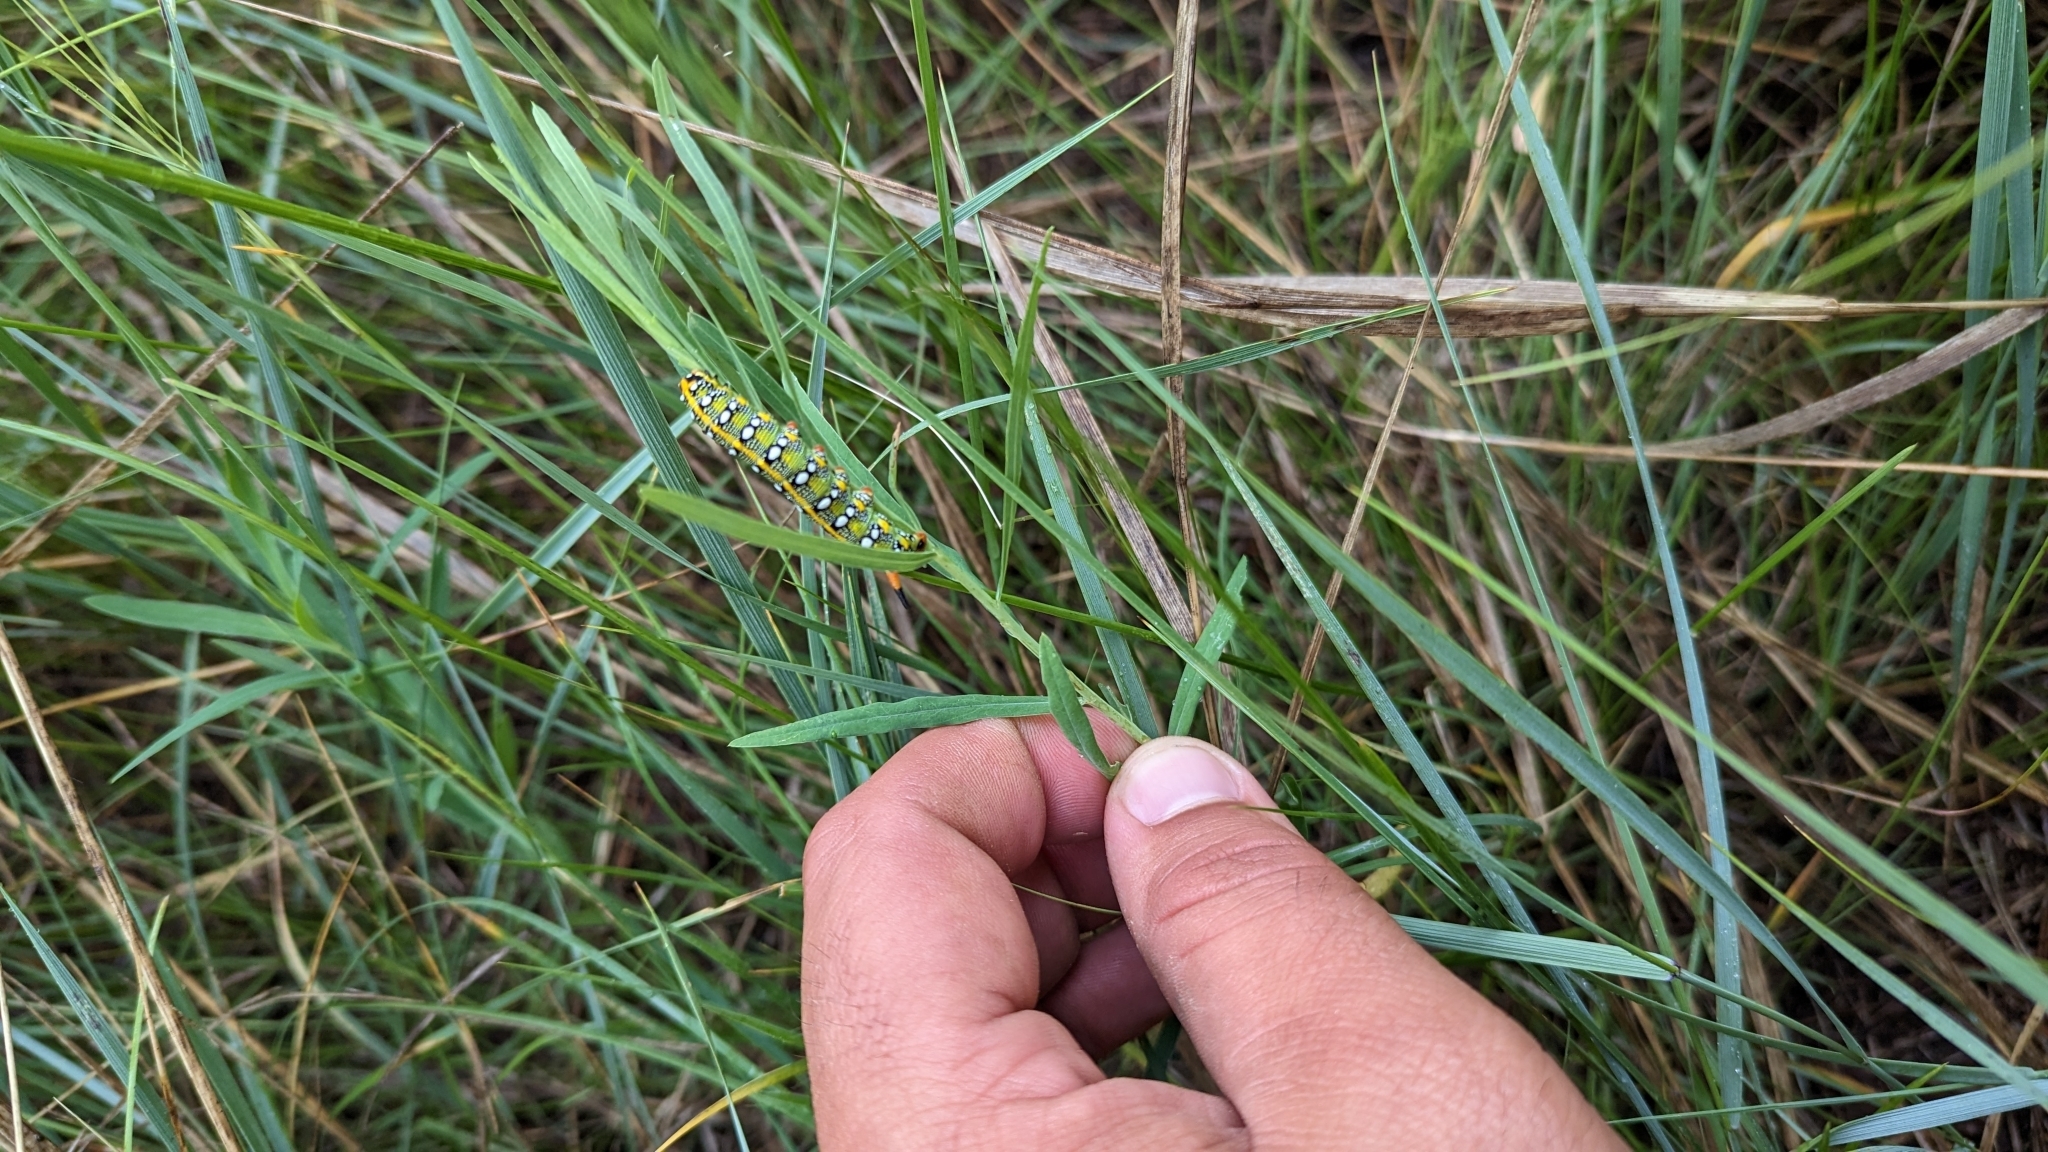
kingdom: Animalia
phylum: Arthropoda
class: Insecta
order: Lepidoptera
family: Sphingidae
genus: Hyles
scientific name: Hyles euphorbiae
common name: Spurge hawk-moth
